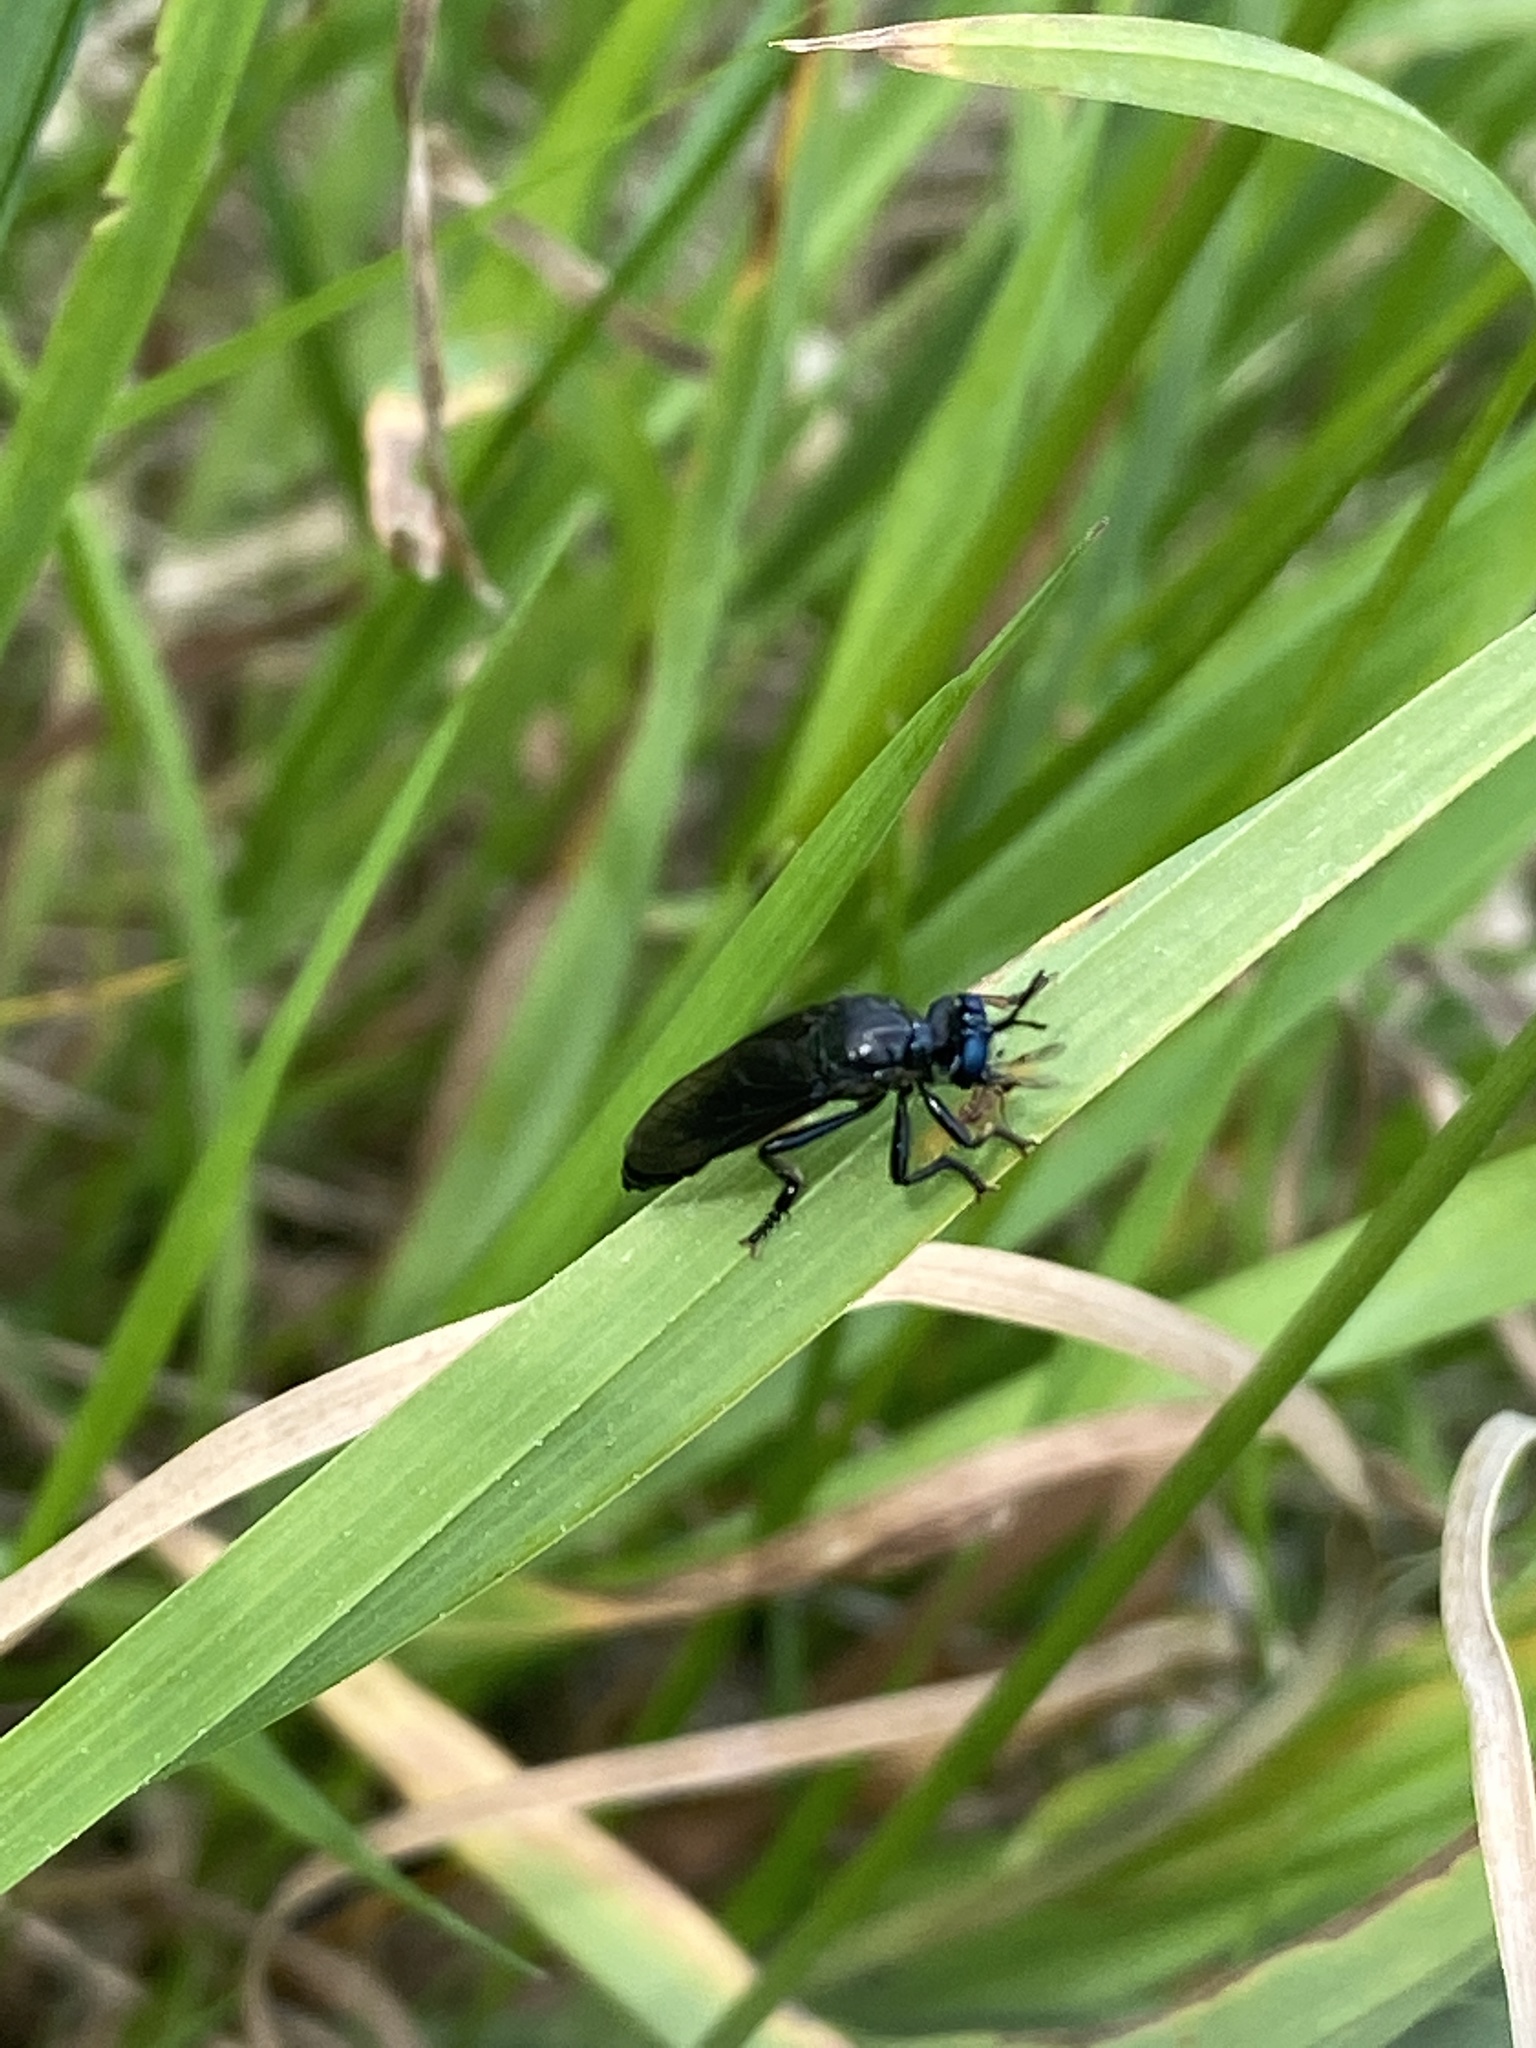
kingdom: Animalia
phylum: Arthropoda
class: Insecta
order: Diptera
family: Asilidae
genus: Dioctria
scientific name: Dioctria atricapilla
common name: Violet black-legged
